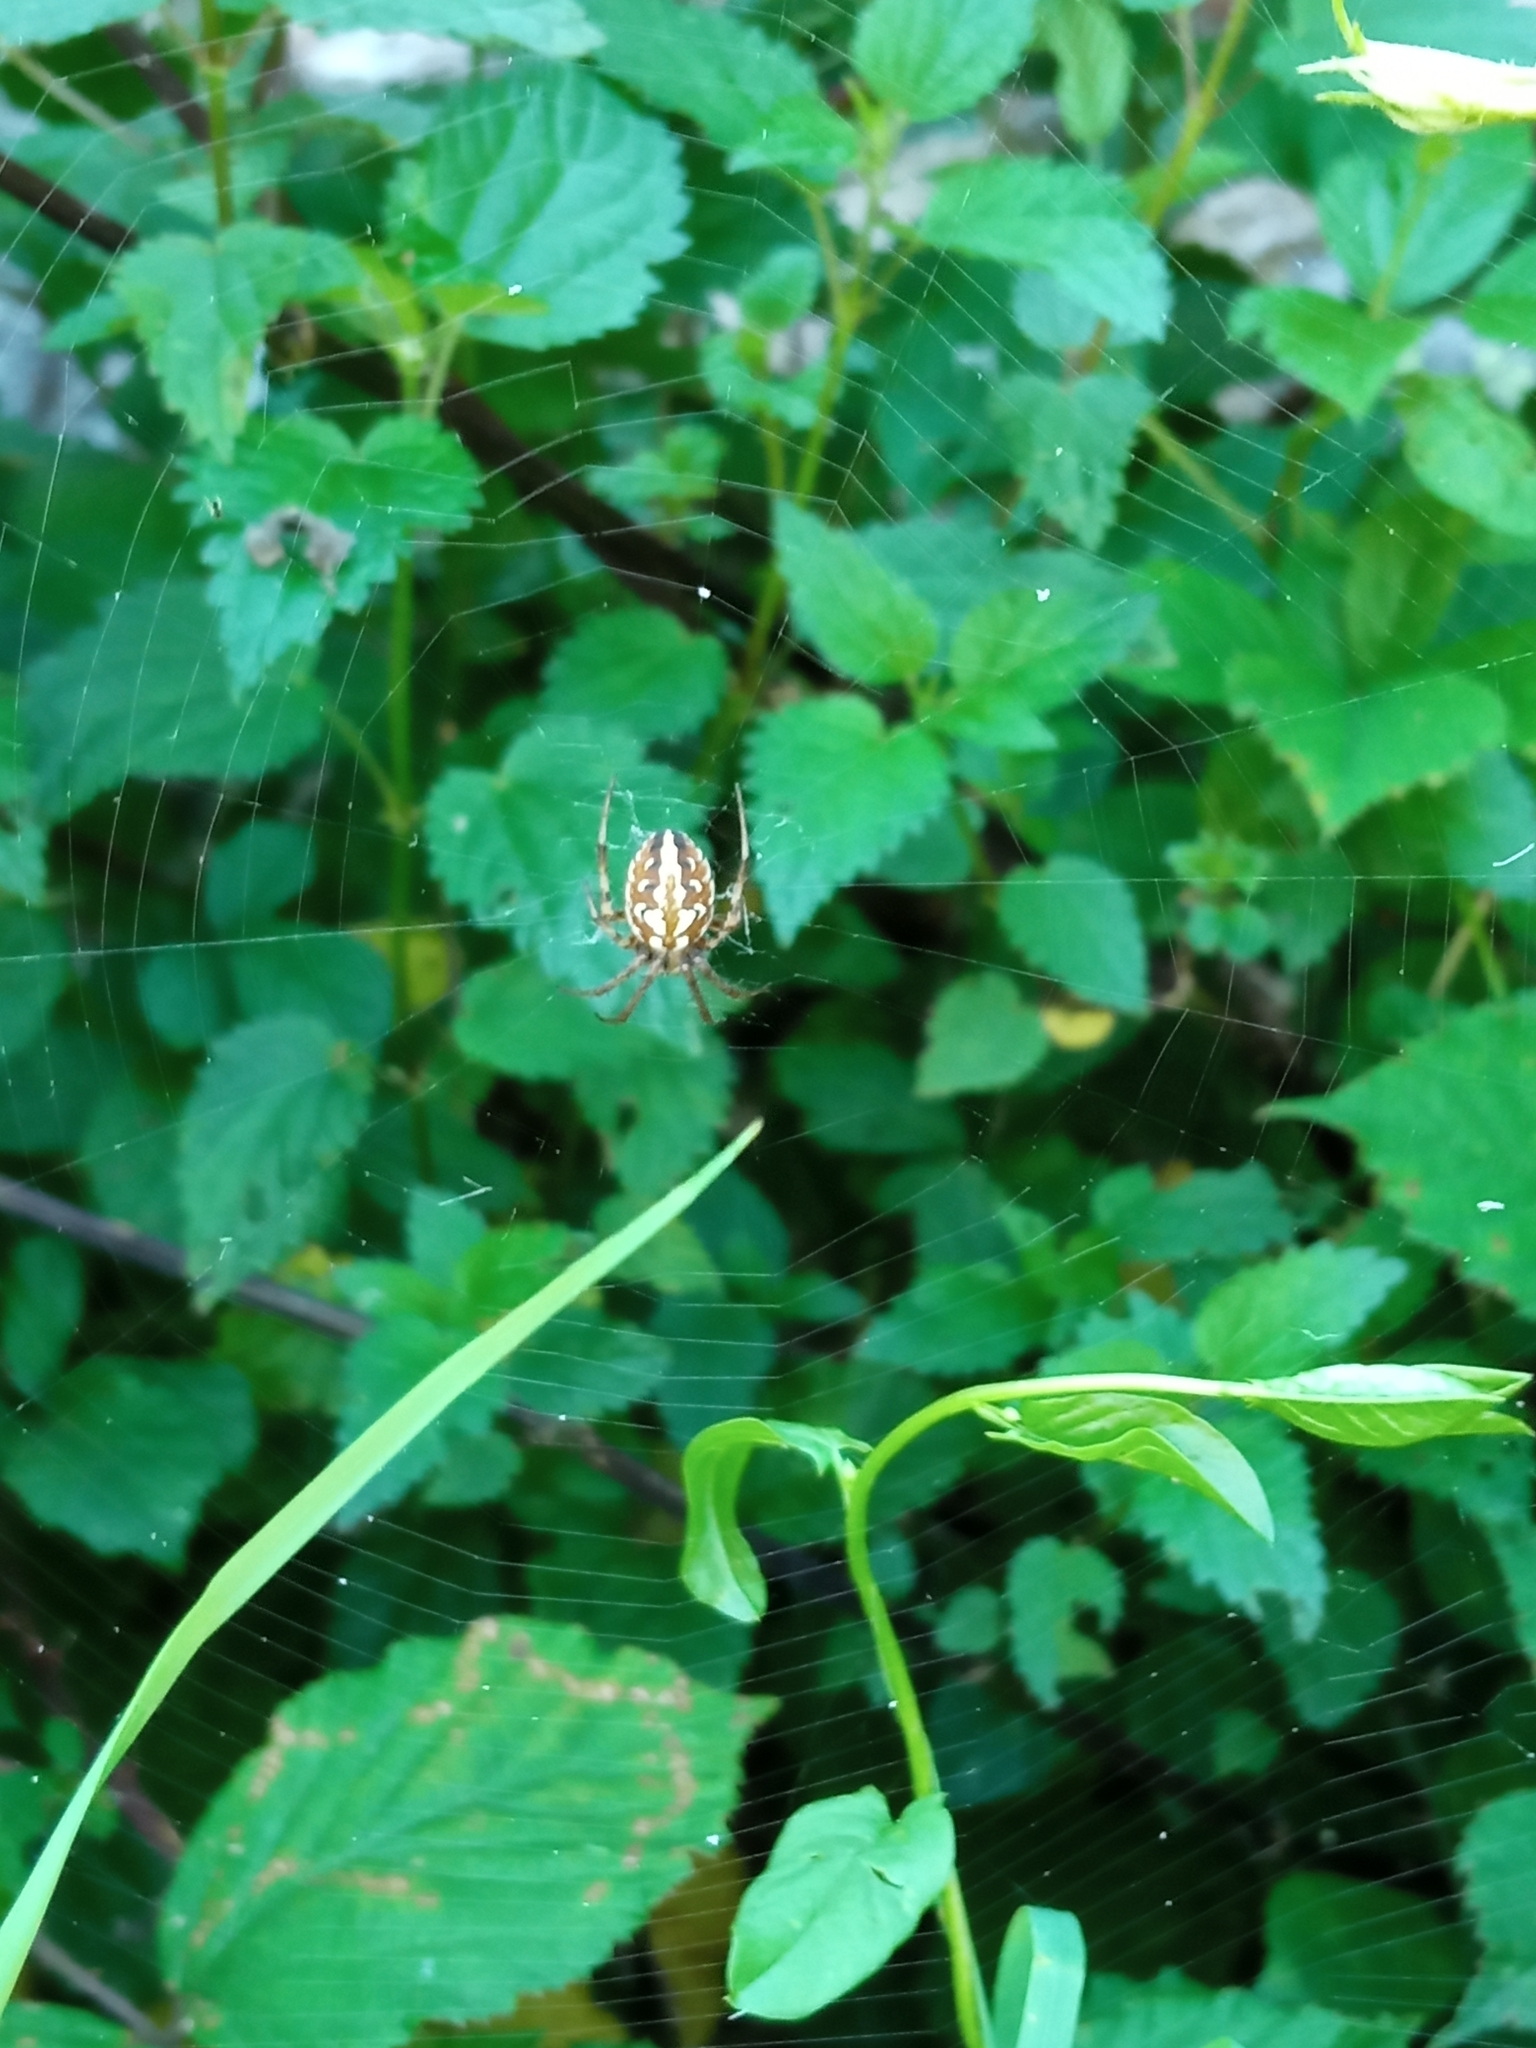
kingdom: Animalia
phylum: Arthropoda
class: Arachnida
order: Araneae
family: Araneidae
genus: Neoscona
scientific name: Neoscona byzanthina
